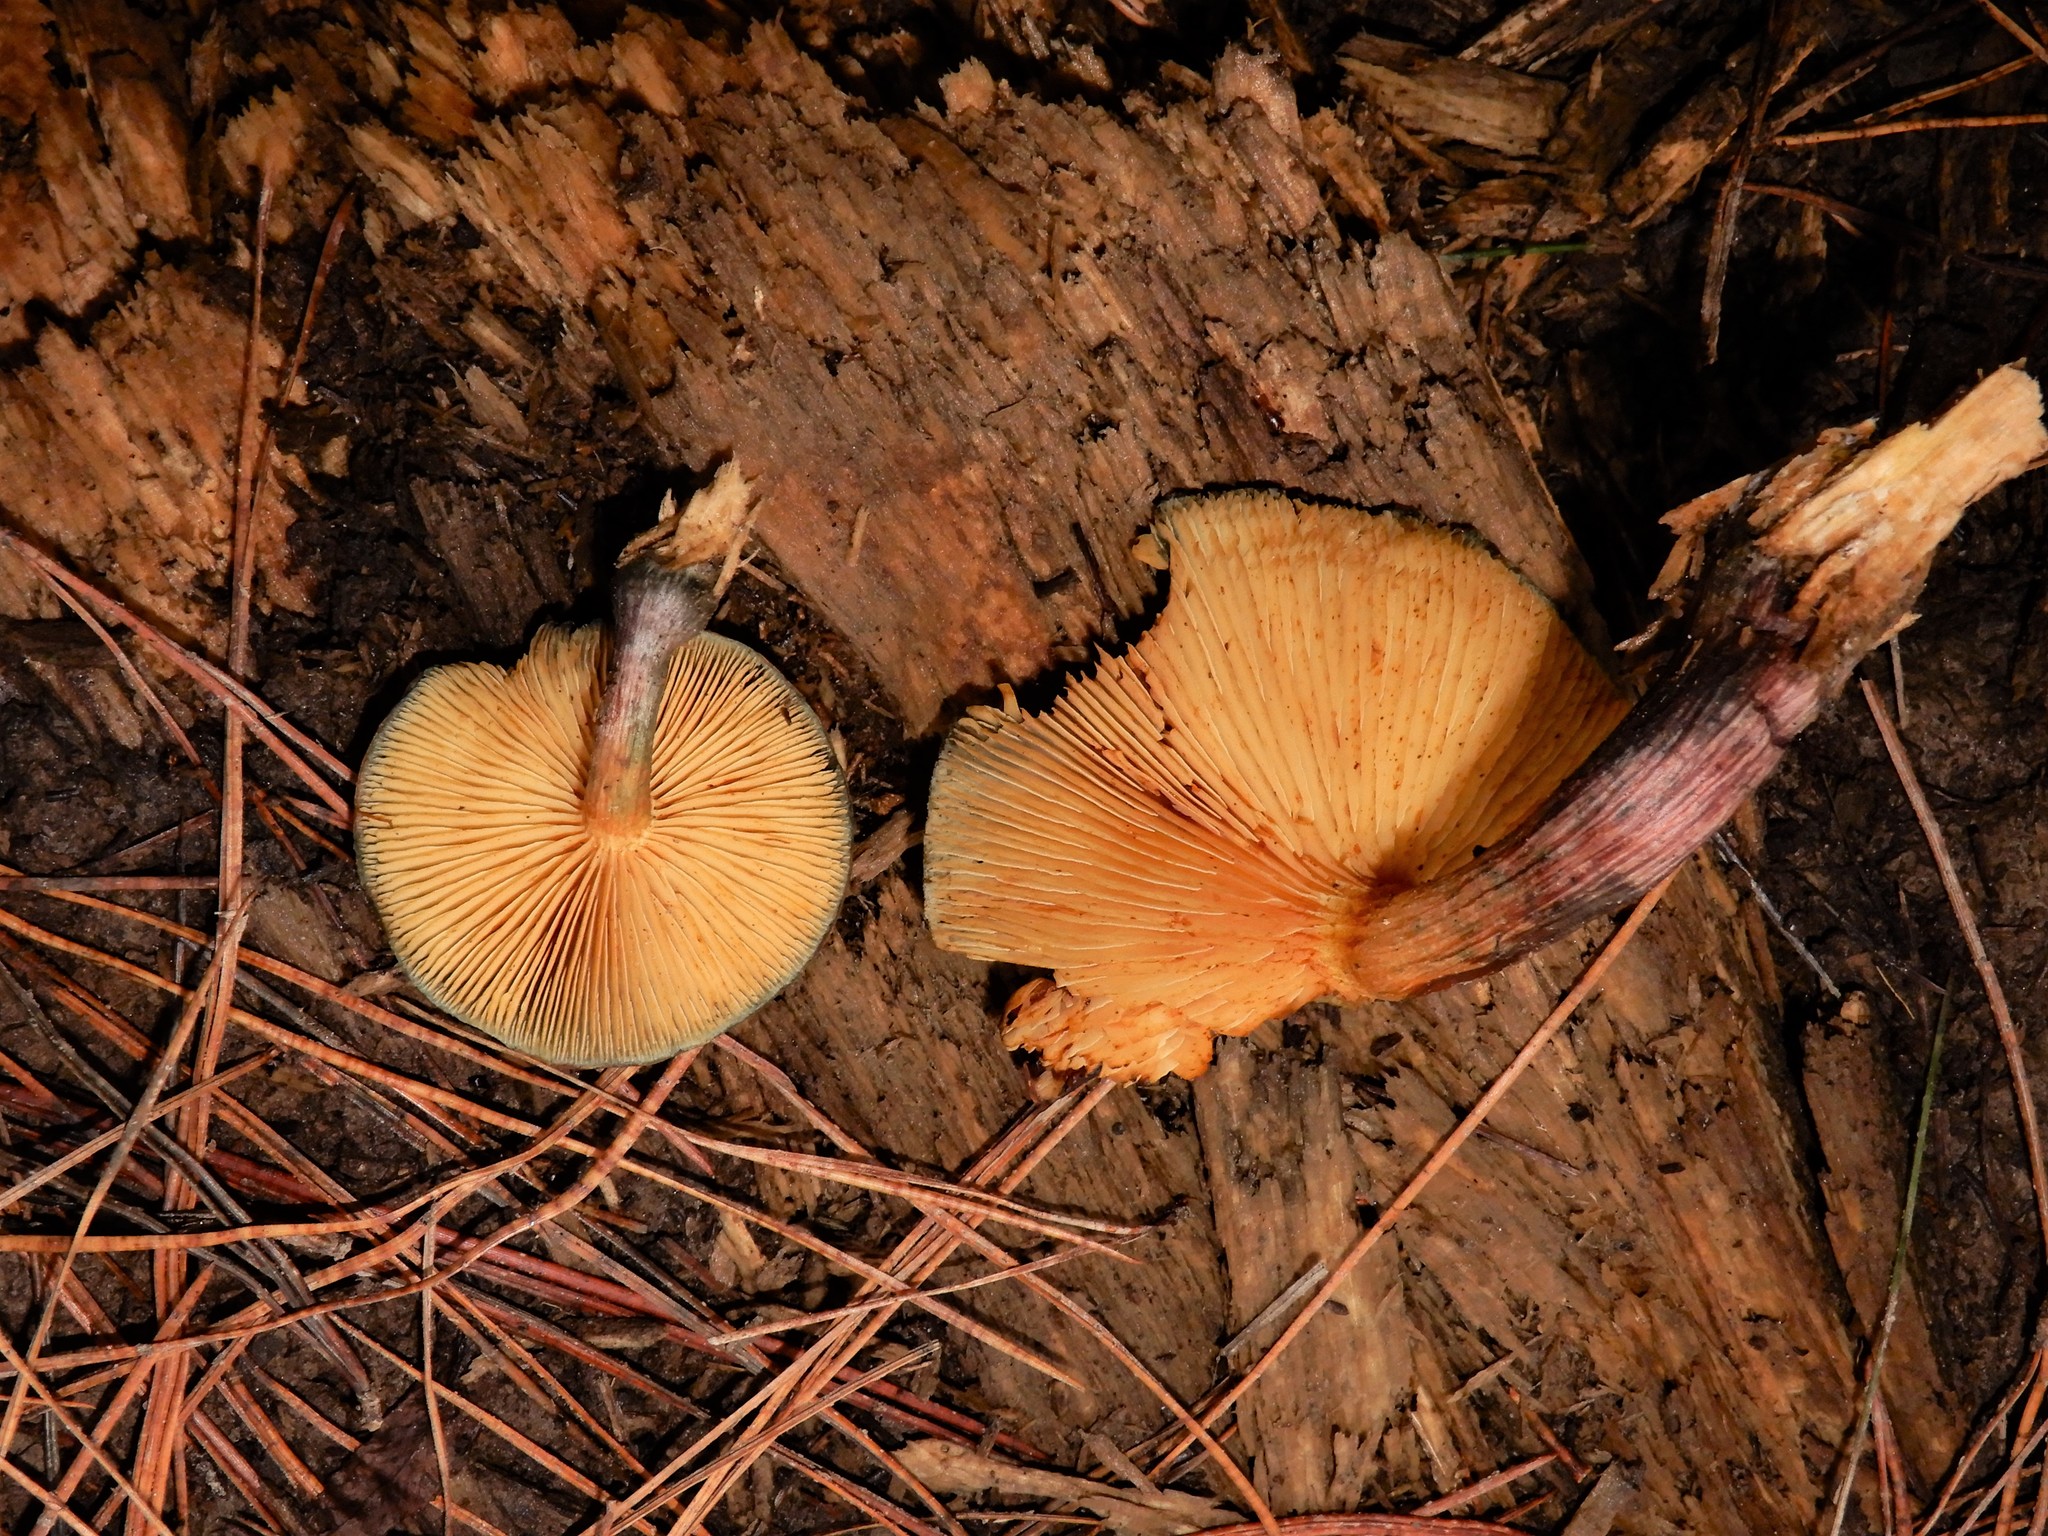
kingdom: Fungi
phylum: Basidiomycota
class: Agaricomycetes
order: Agaricales
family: Hymenogastraceae
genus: Gymnopilus
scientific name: Gymnopilus purpuratus
